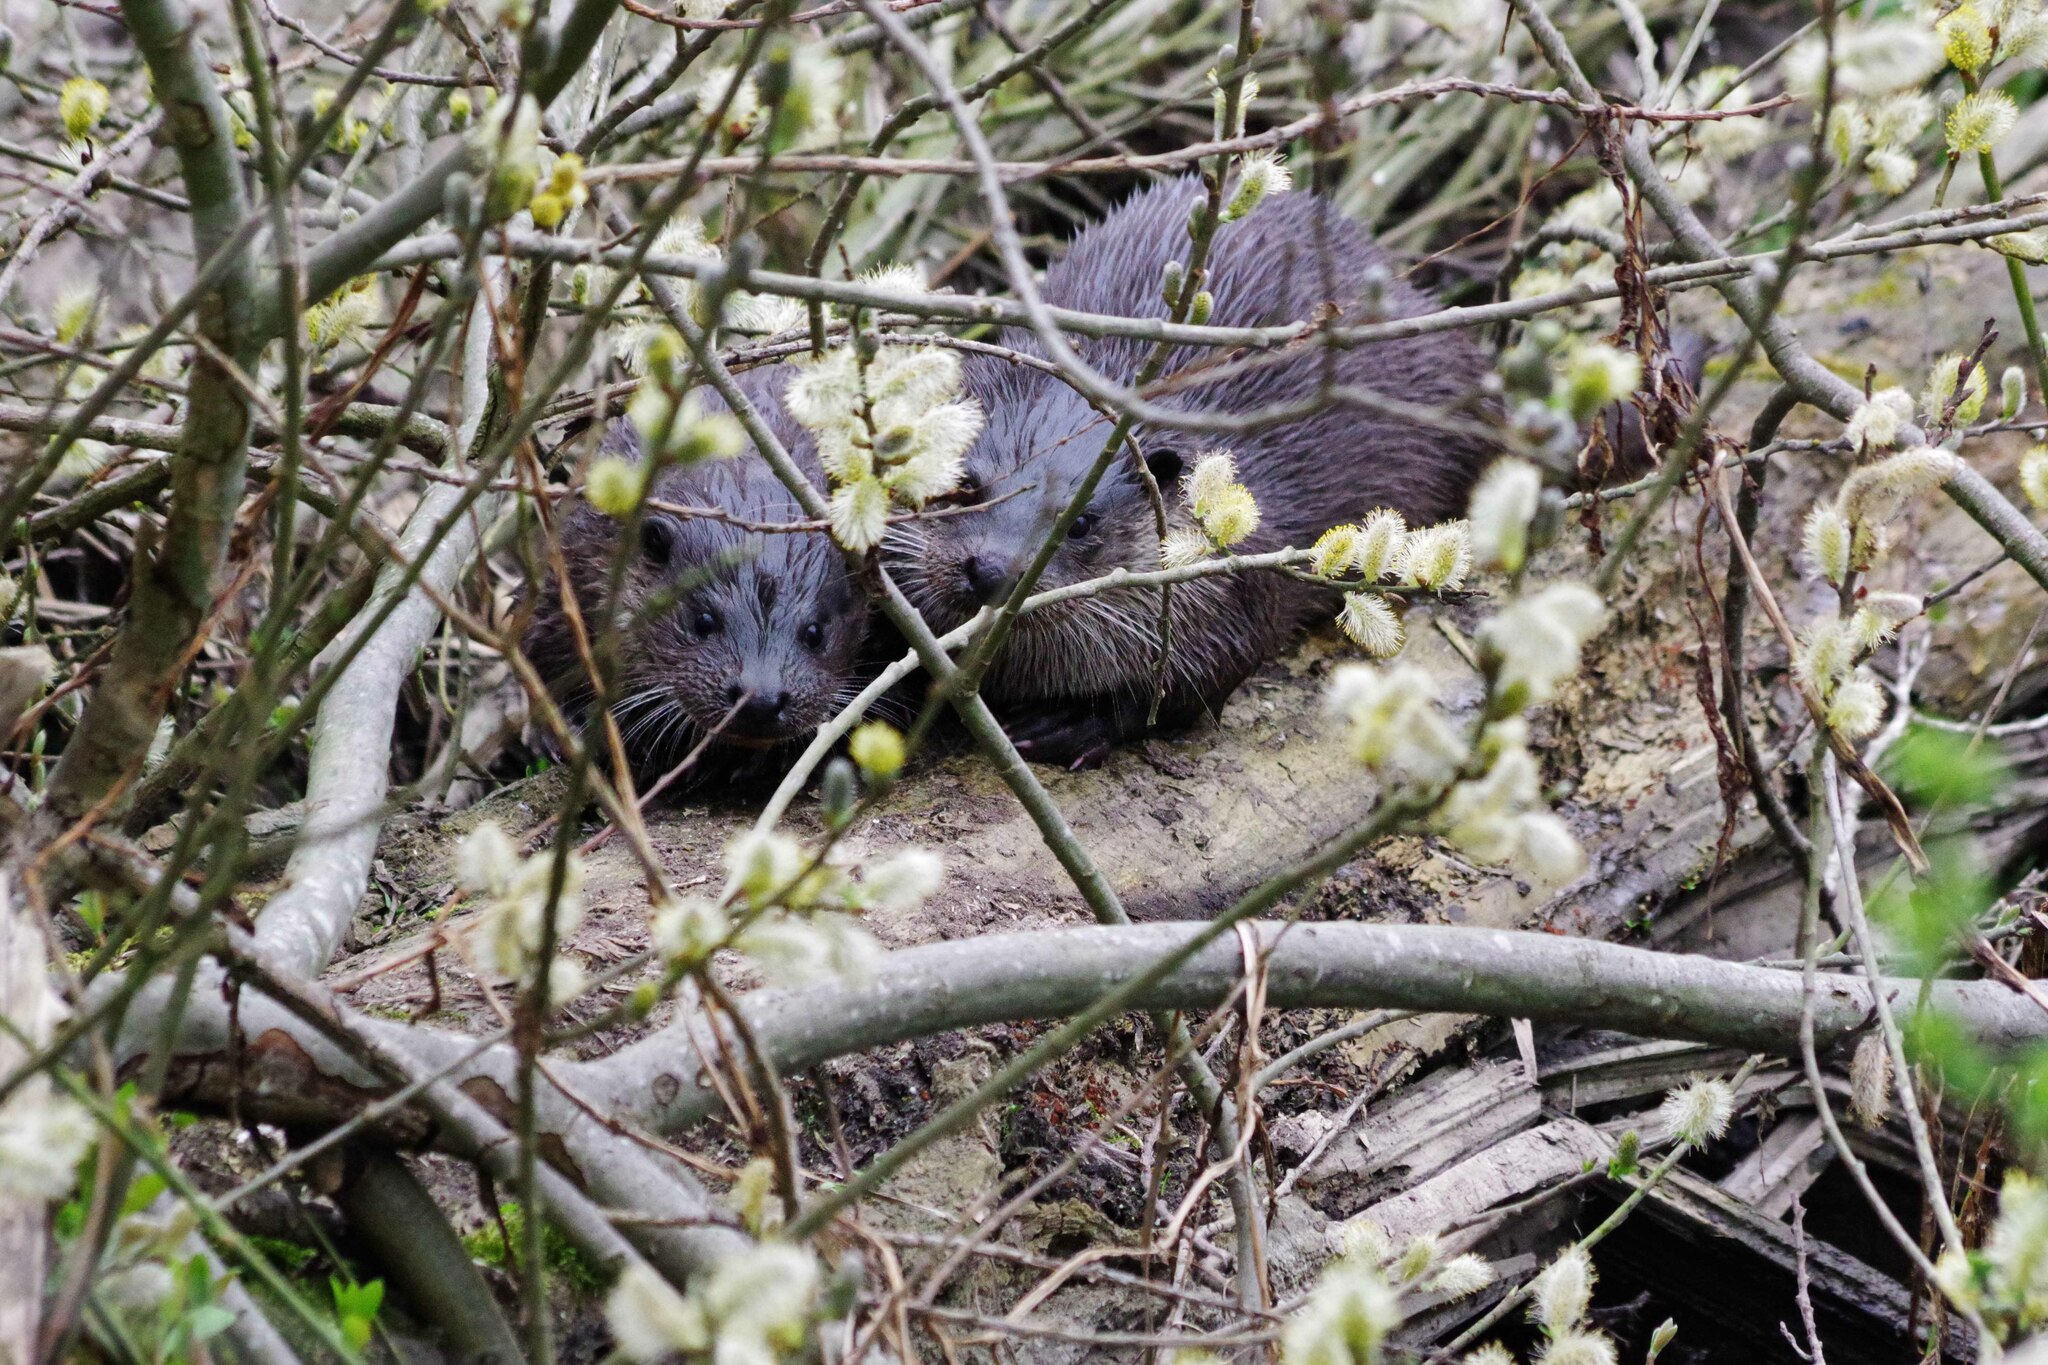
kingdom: Animalia
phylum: Chordata
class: Mammalia
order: Carnivora
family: Mustelidae
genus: Lutra
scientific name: Lutra lutra
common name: European otter
